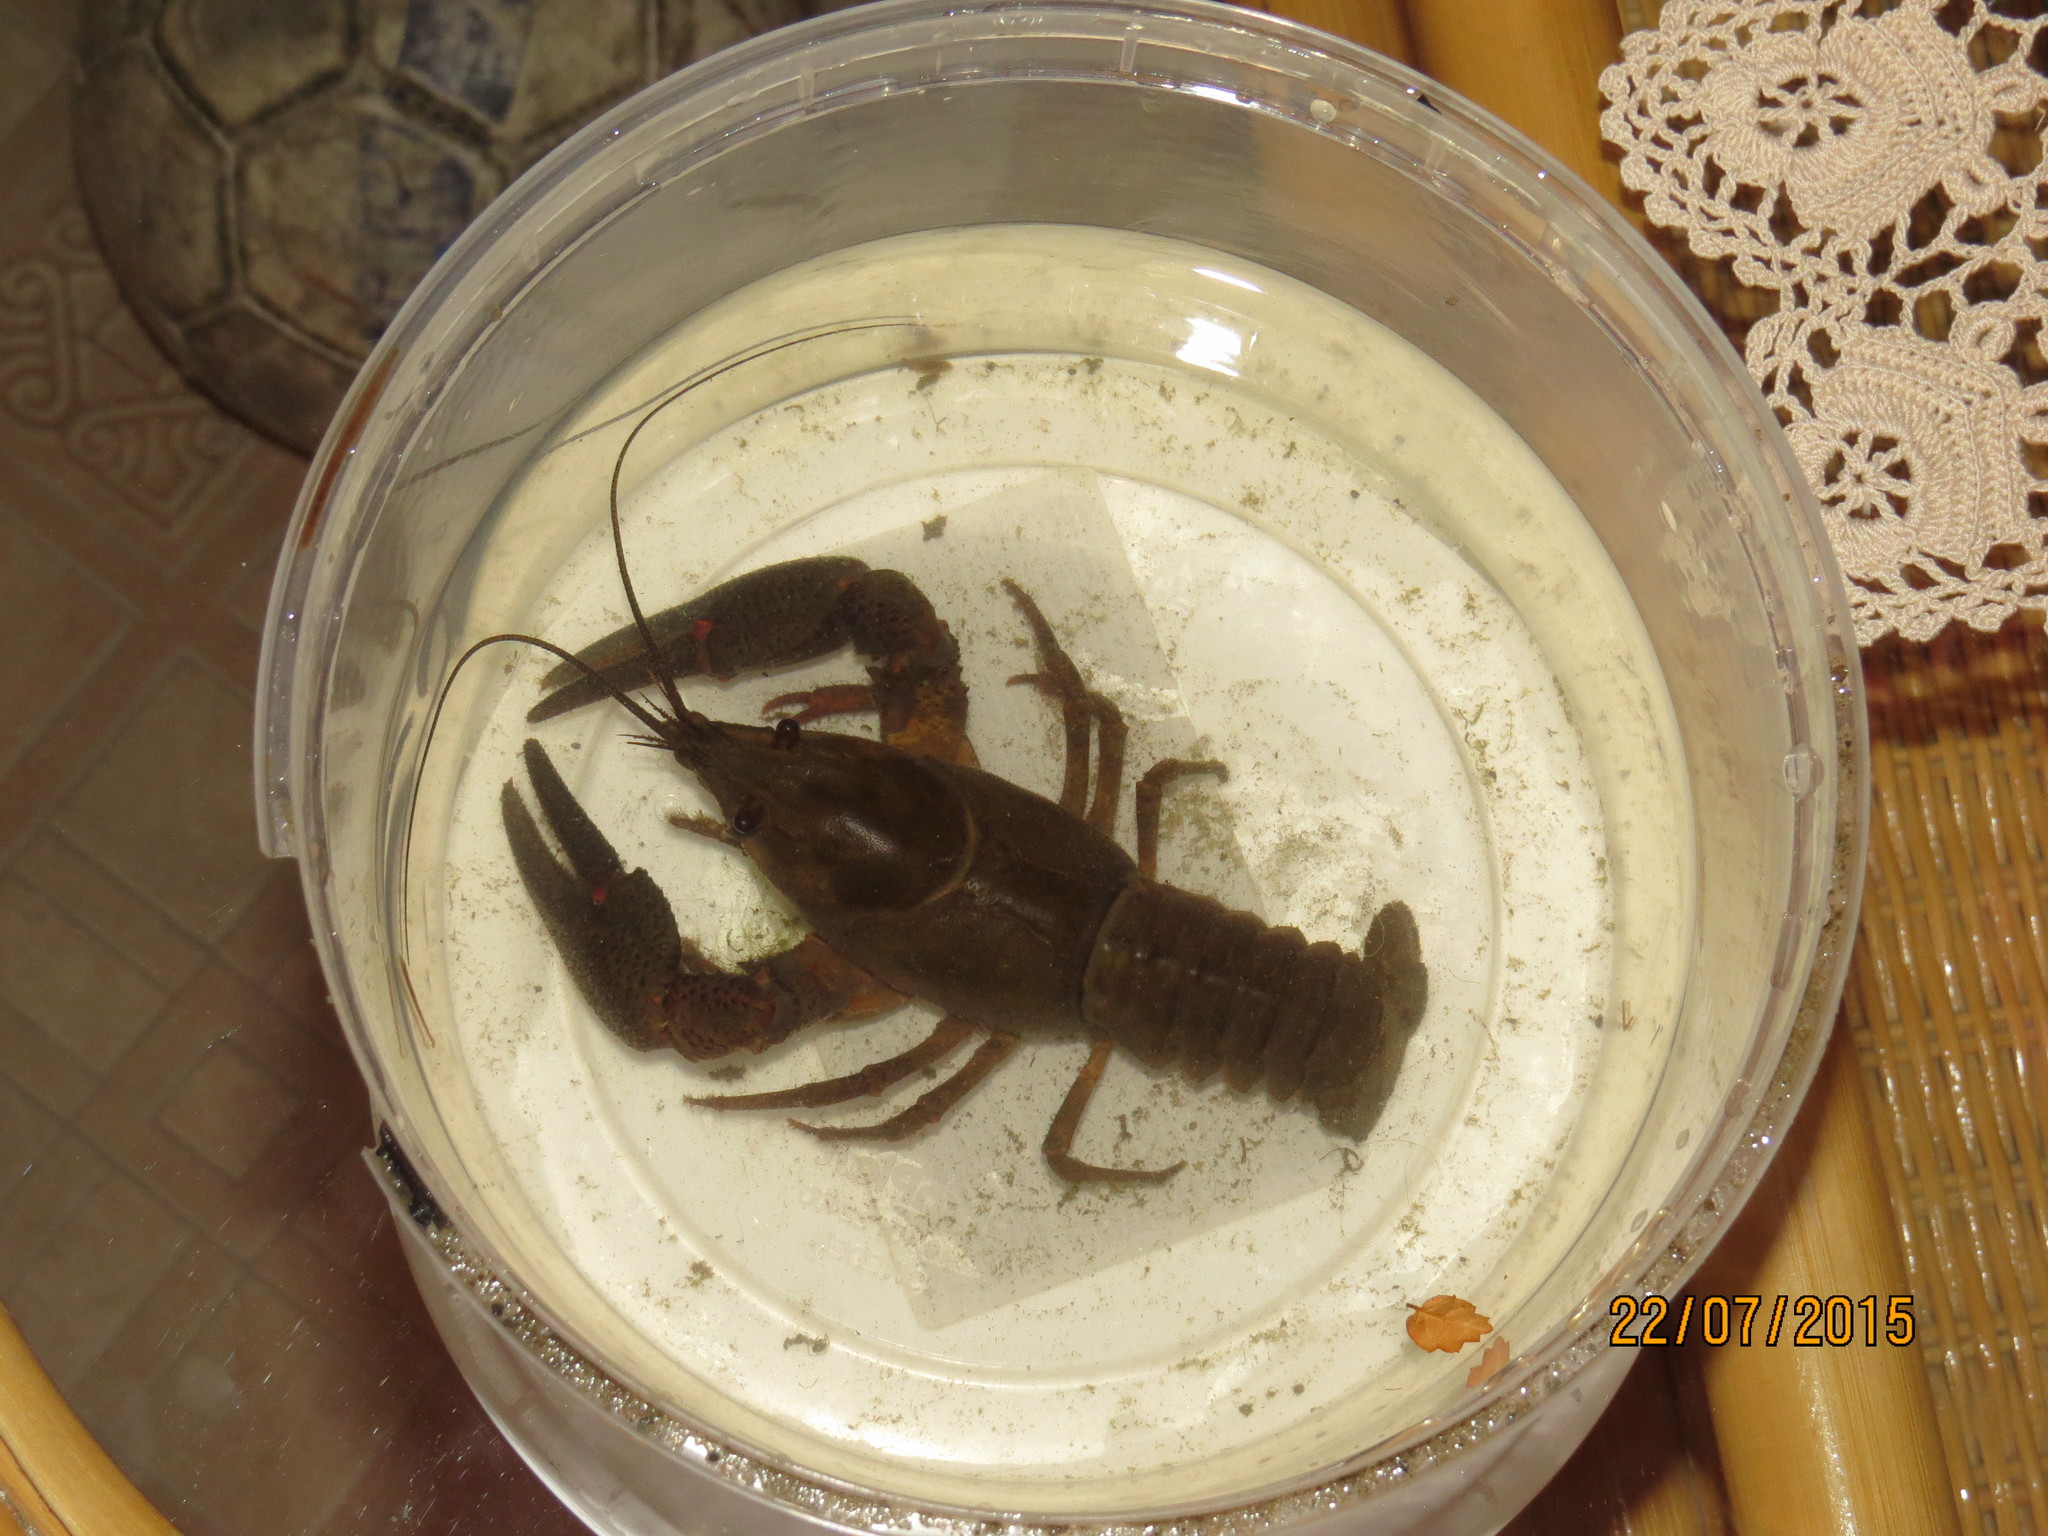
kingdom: Animalia
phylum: Arthropoda
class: Malacostraca
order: Decapoda
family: Astacidae
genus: Astacus
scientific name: Astacus astacus
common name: Noble crayfish
